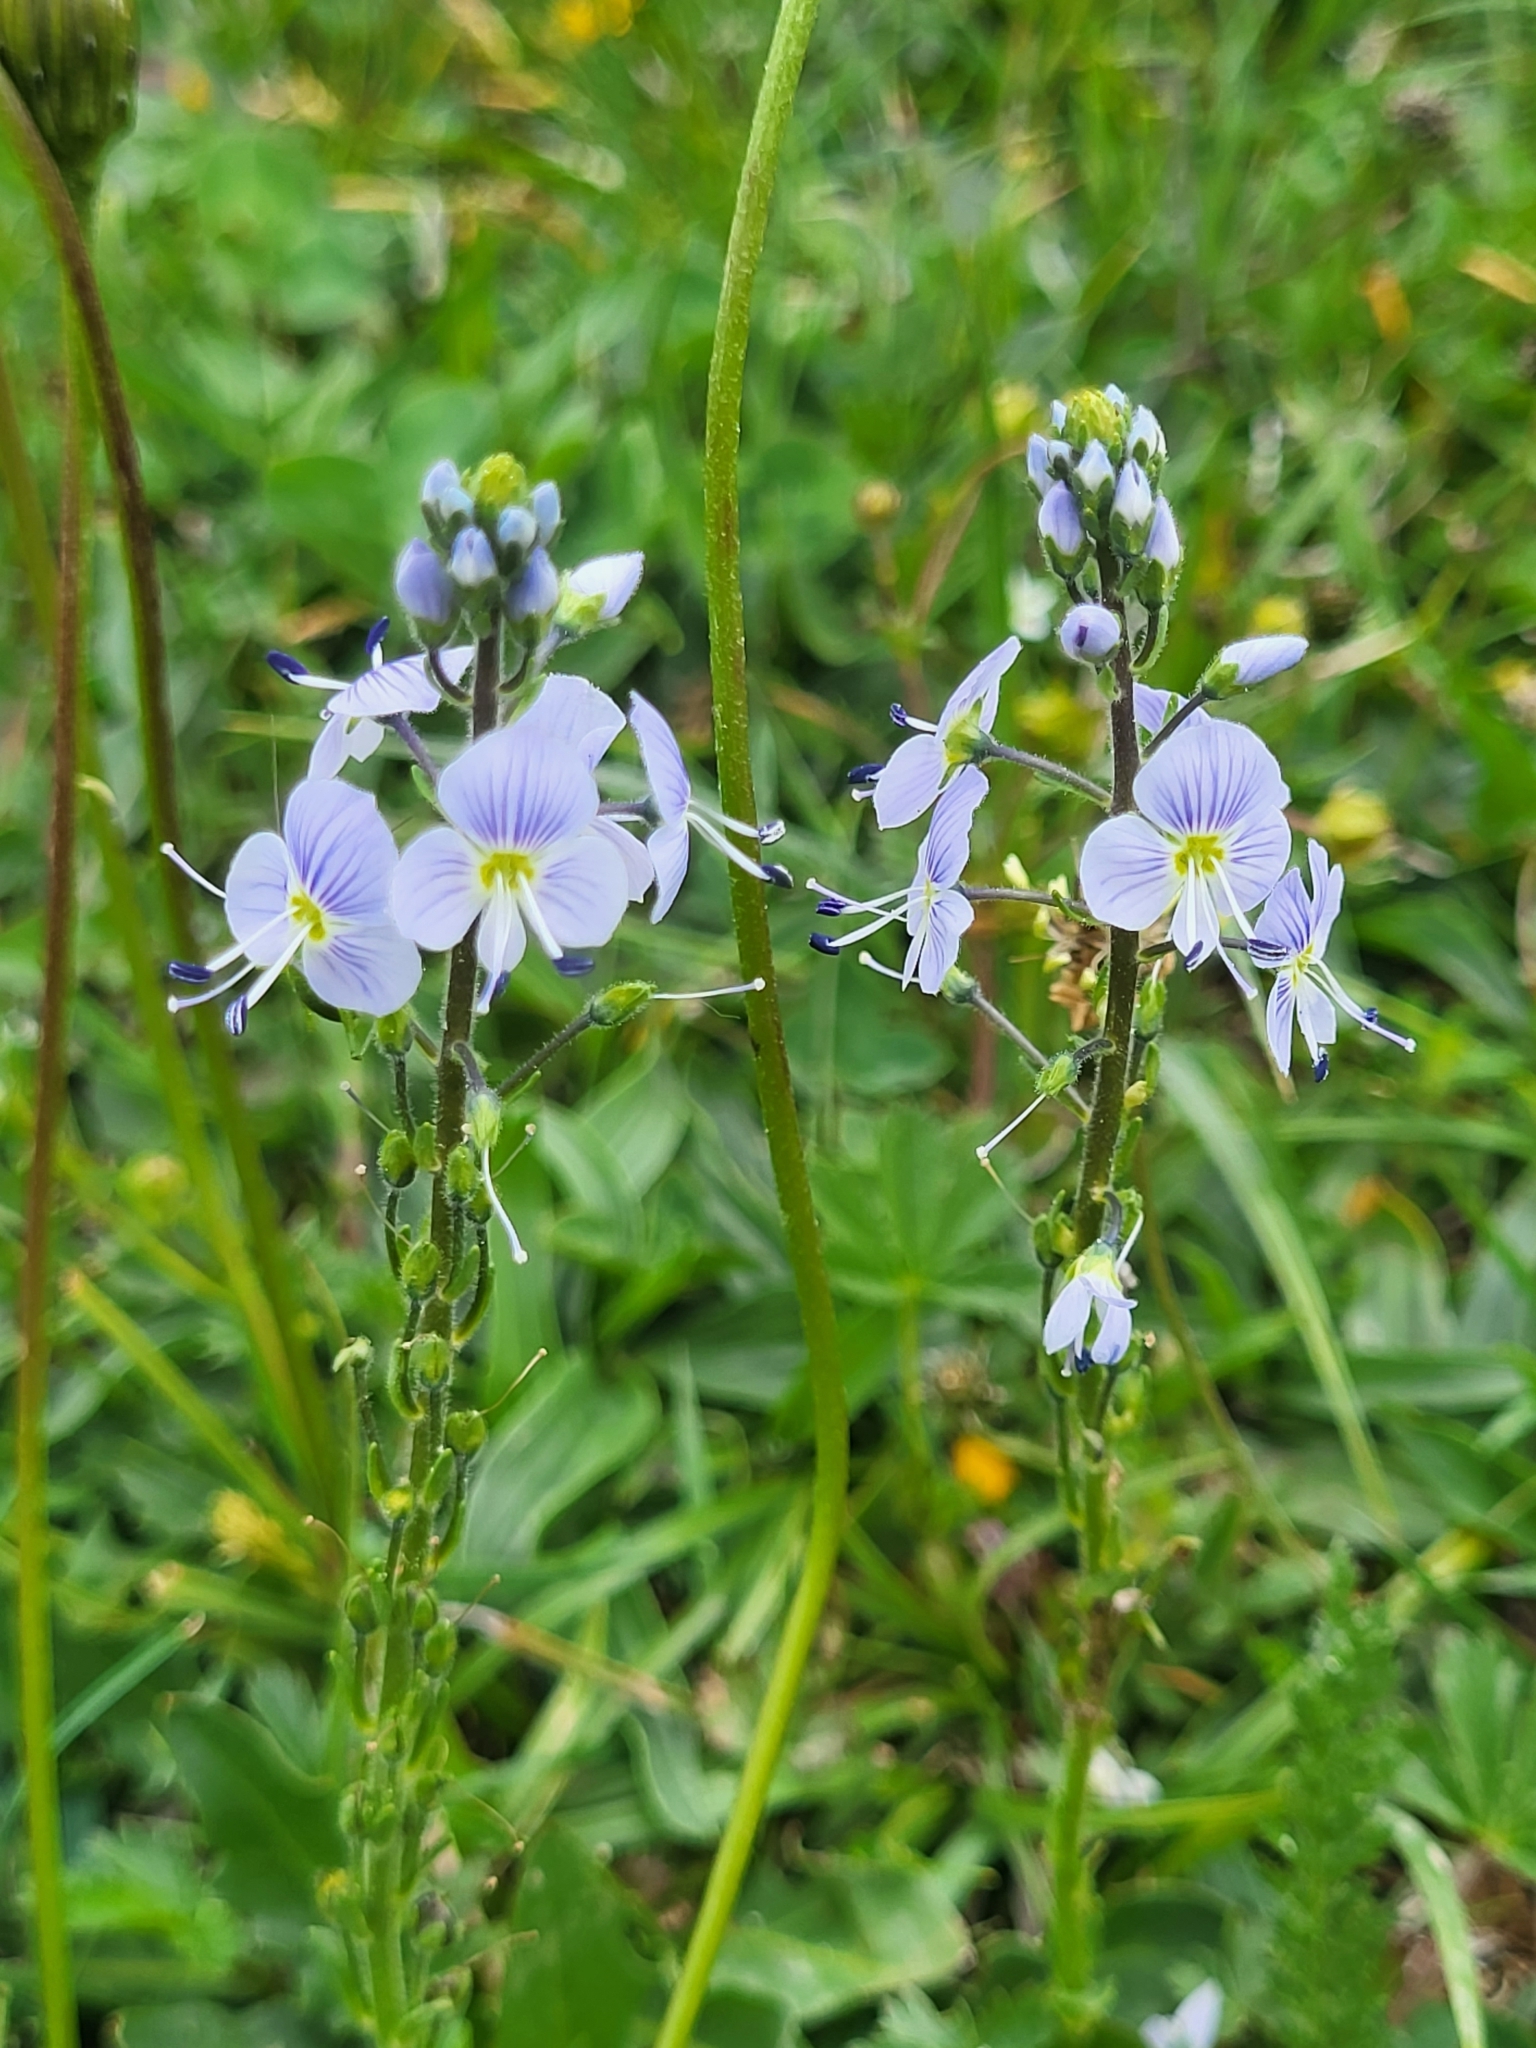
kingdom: Plantae
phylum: Tracheophyta
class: Magnoliopsida
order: Lamiales
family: Plantaginaceae
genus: Veronica
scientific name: Veronica gentianoides
